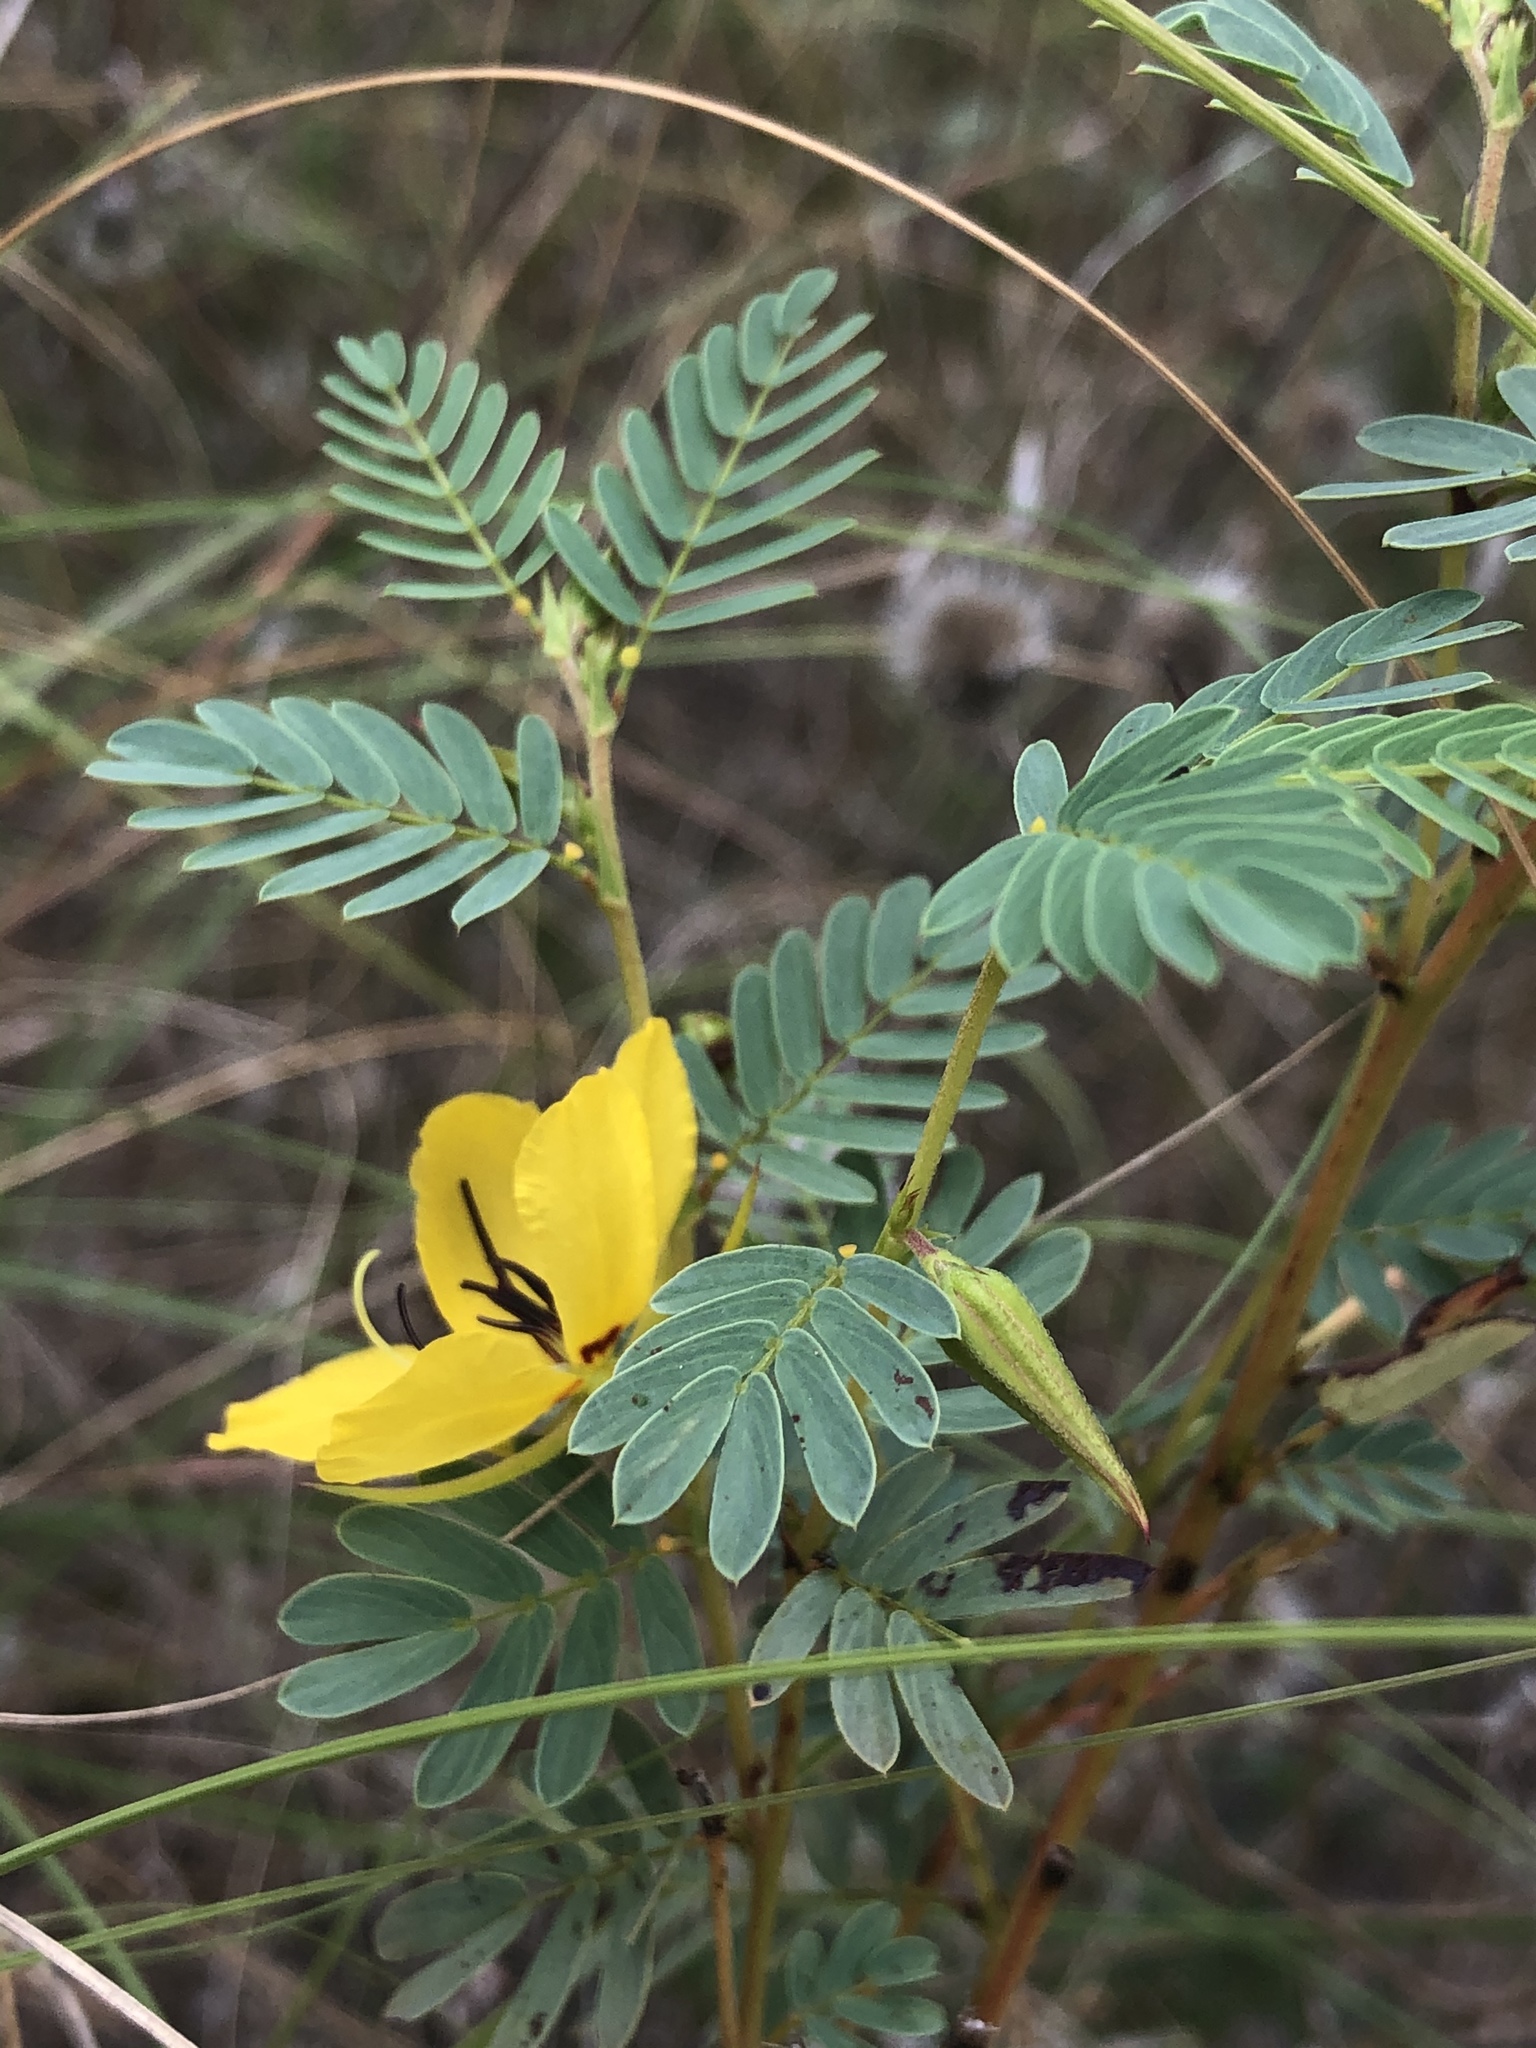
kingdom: Plantae
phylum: Tracheophyta
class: Magnoliopsida
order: Fabales
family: Fabaceae
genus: Chamaecrista
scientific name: Chamaecrista fasciculata
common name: Golden cassia
